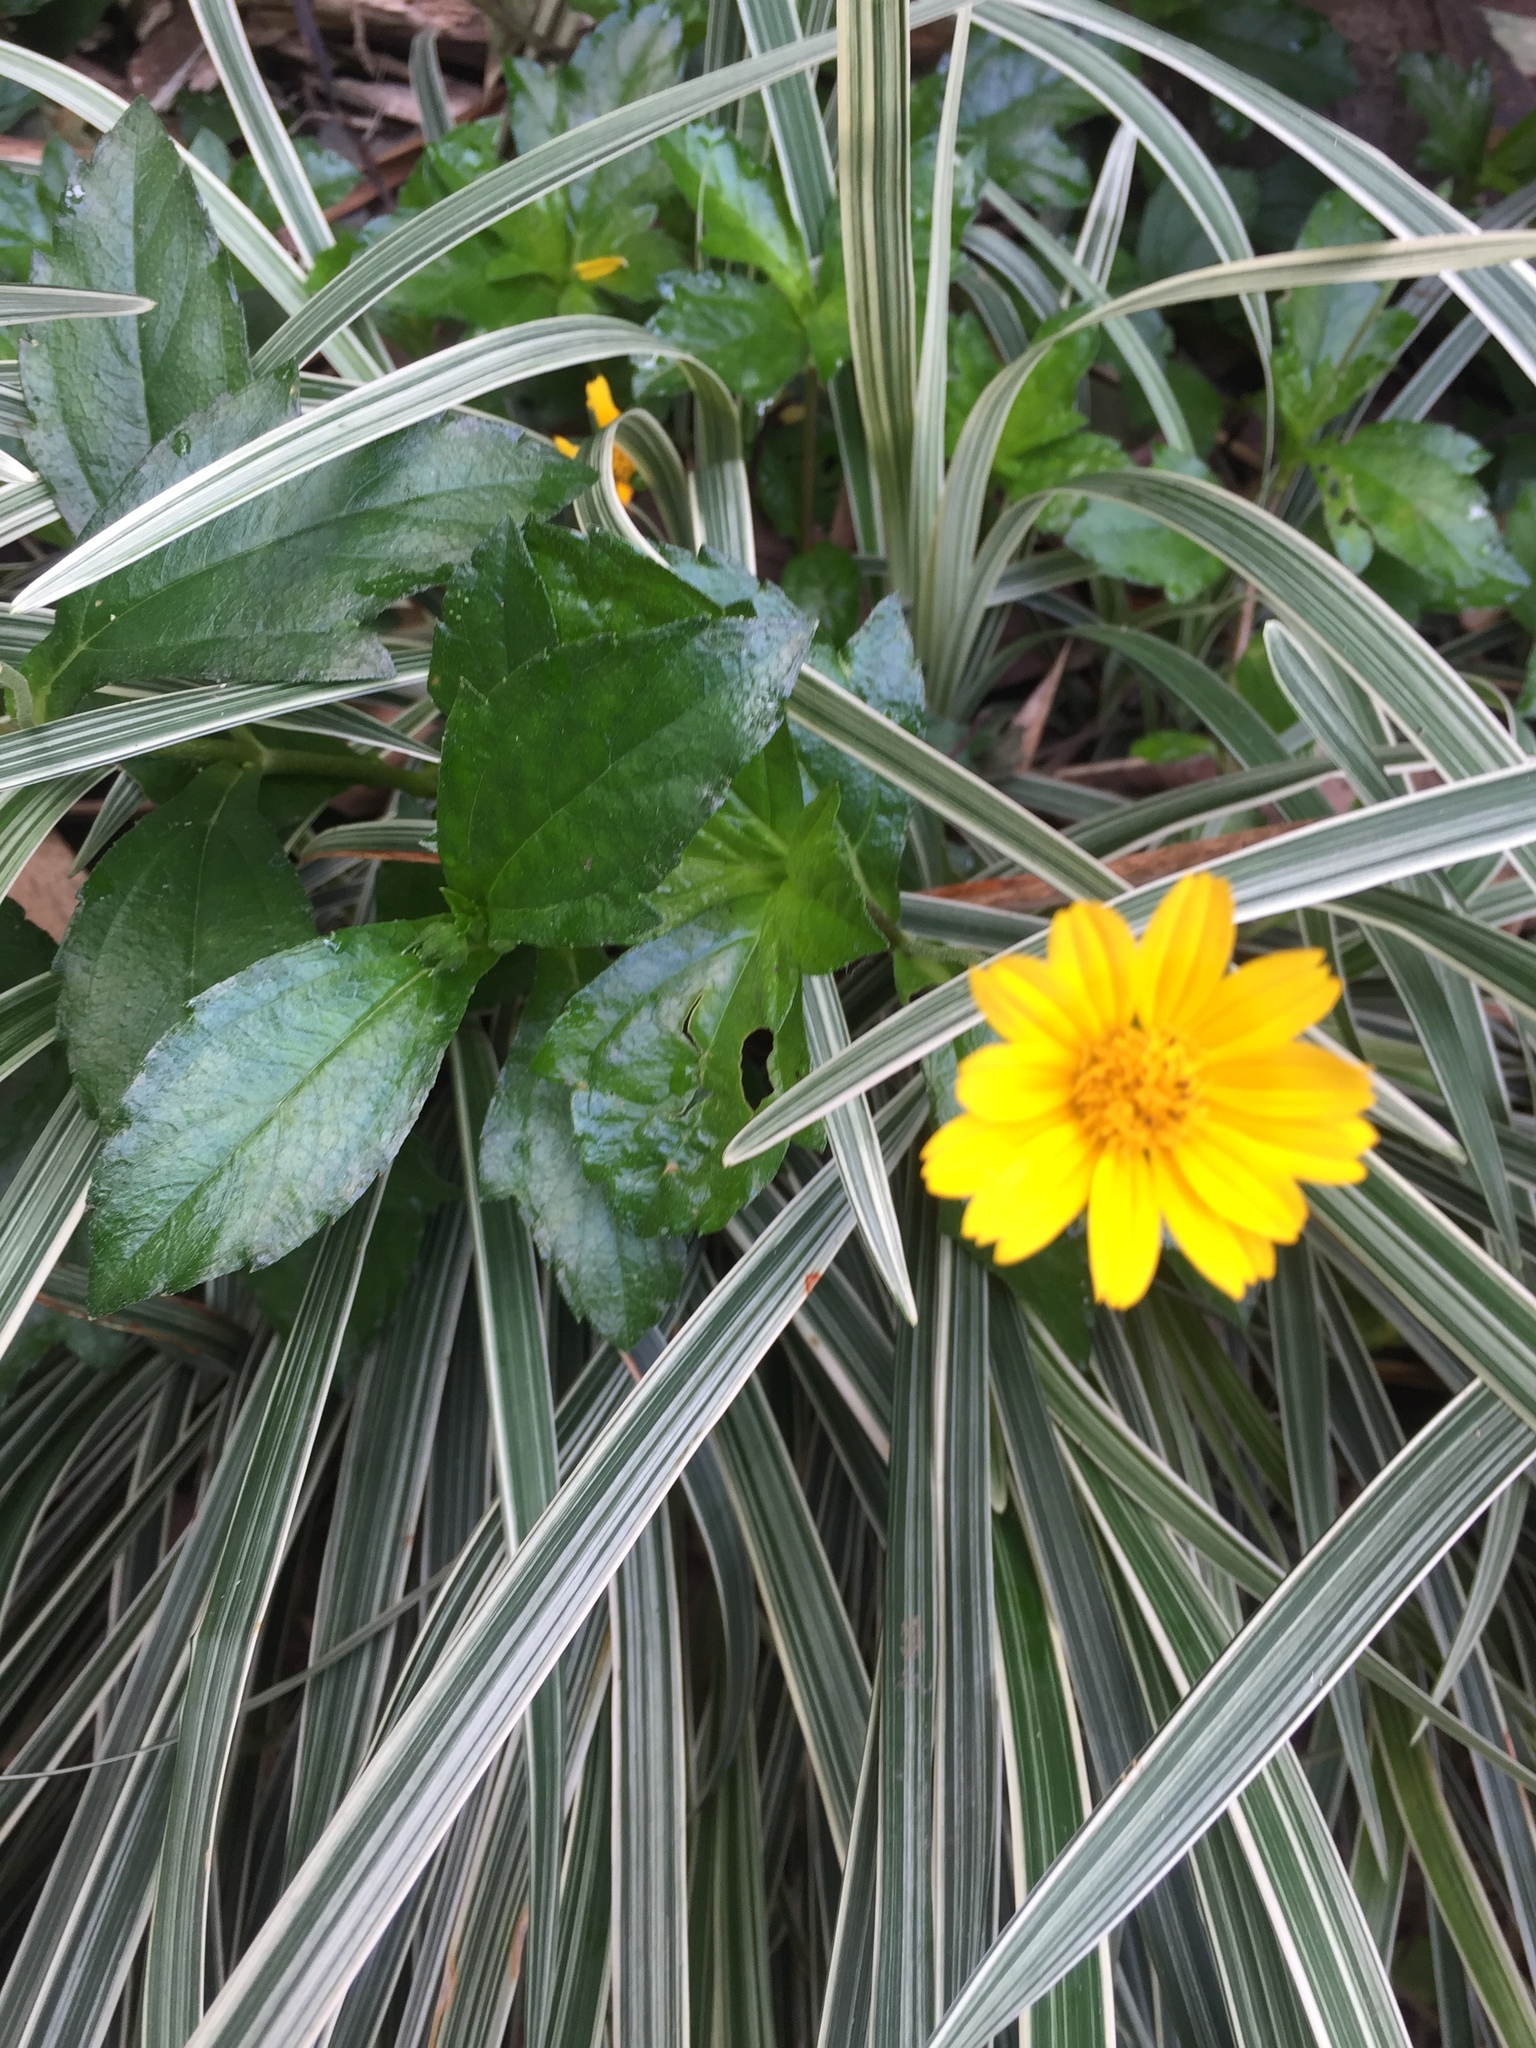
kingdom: Plantae
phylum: Tracheophyta
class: Magnoliopsida
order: Asterales
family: Asteraceae
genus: Sphagneticola
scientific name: Sphagneticola trilobata
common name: Bay biscayne creeping-oxeye
